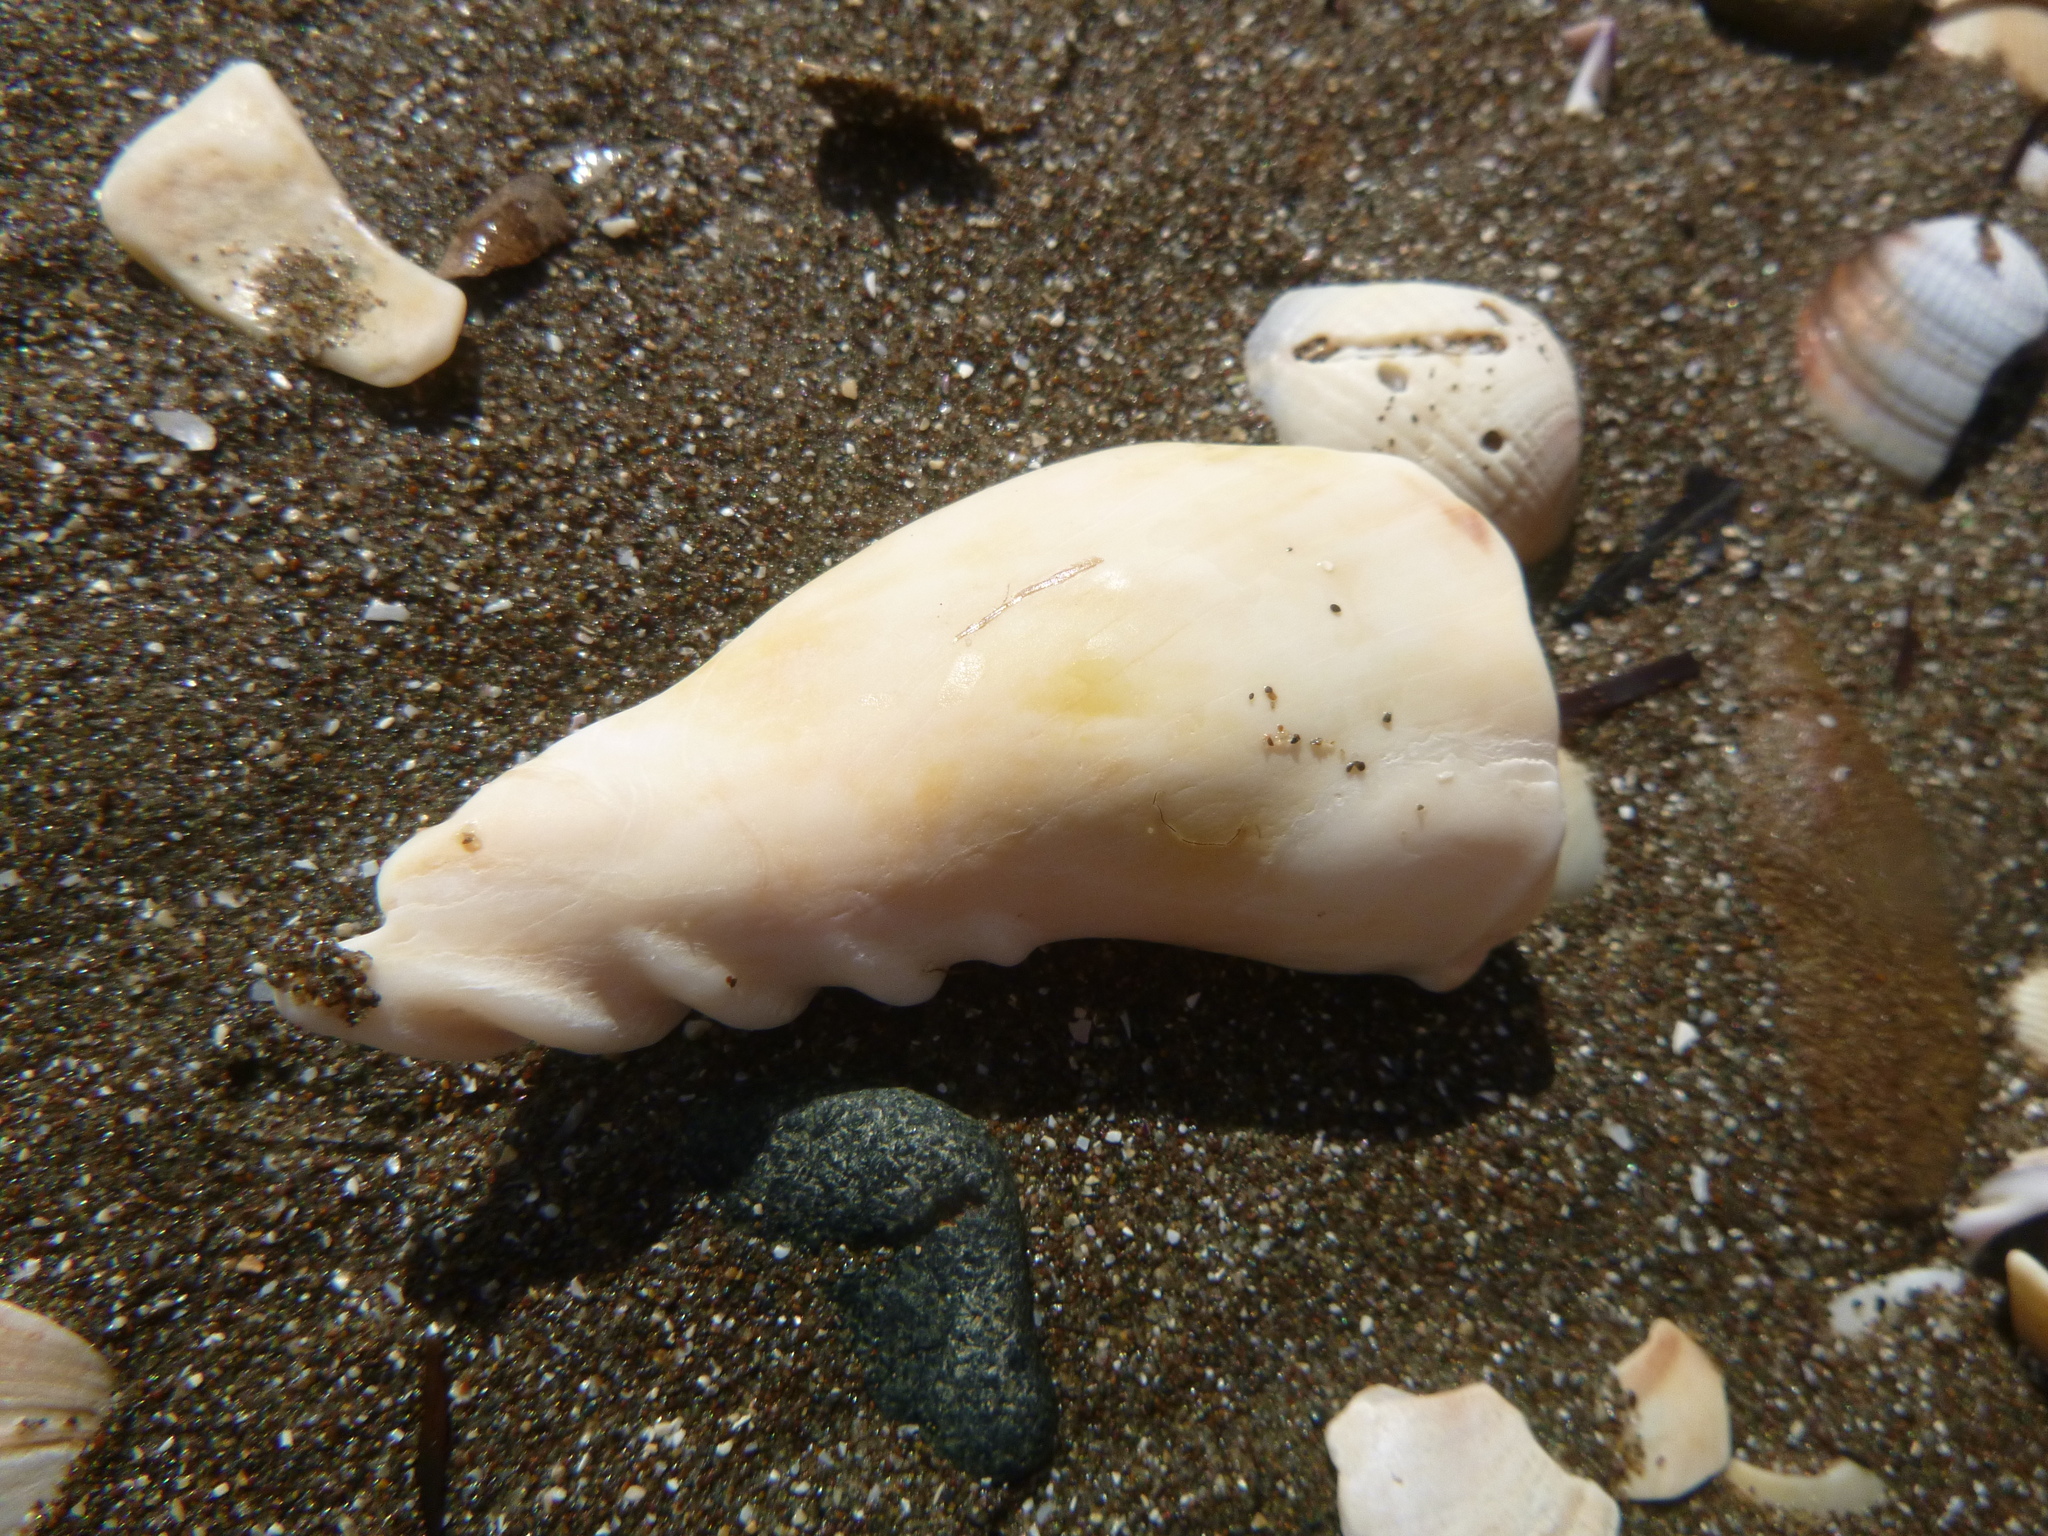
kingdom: Animalia
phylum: Mollusca
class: Gastropoda
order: Neogastropoda
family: Volutidae
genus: Alcithoe
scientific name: Alcithoe arabica
